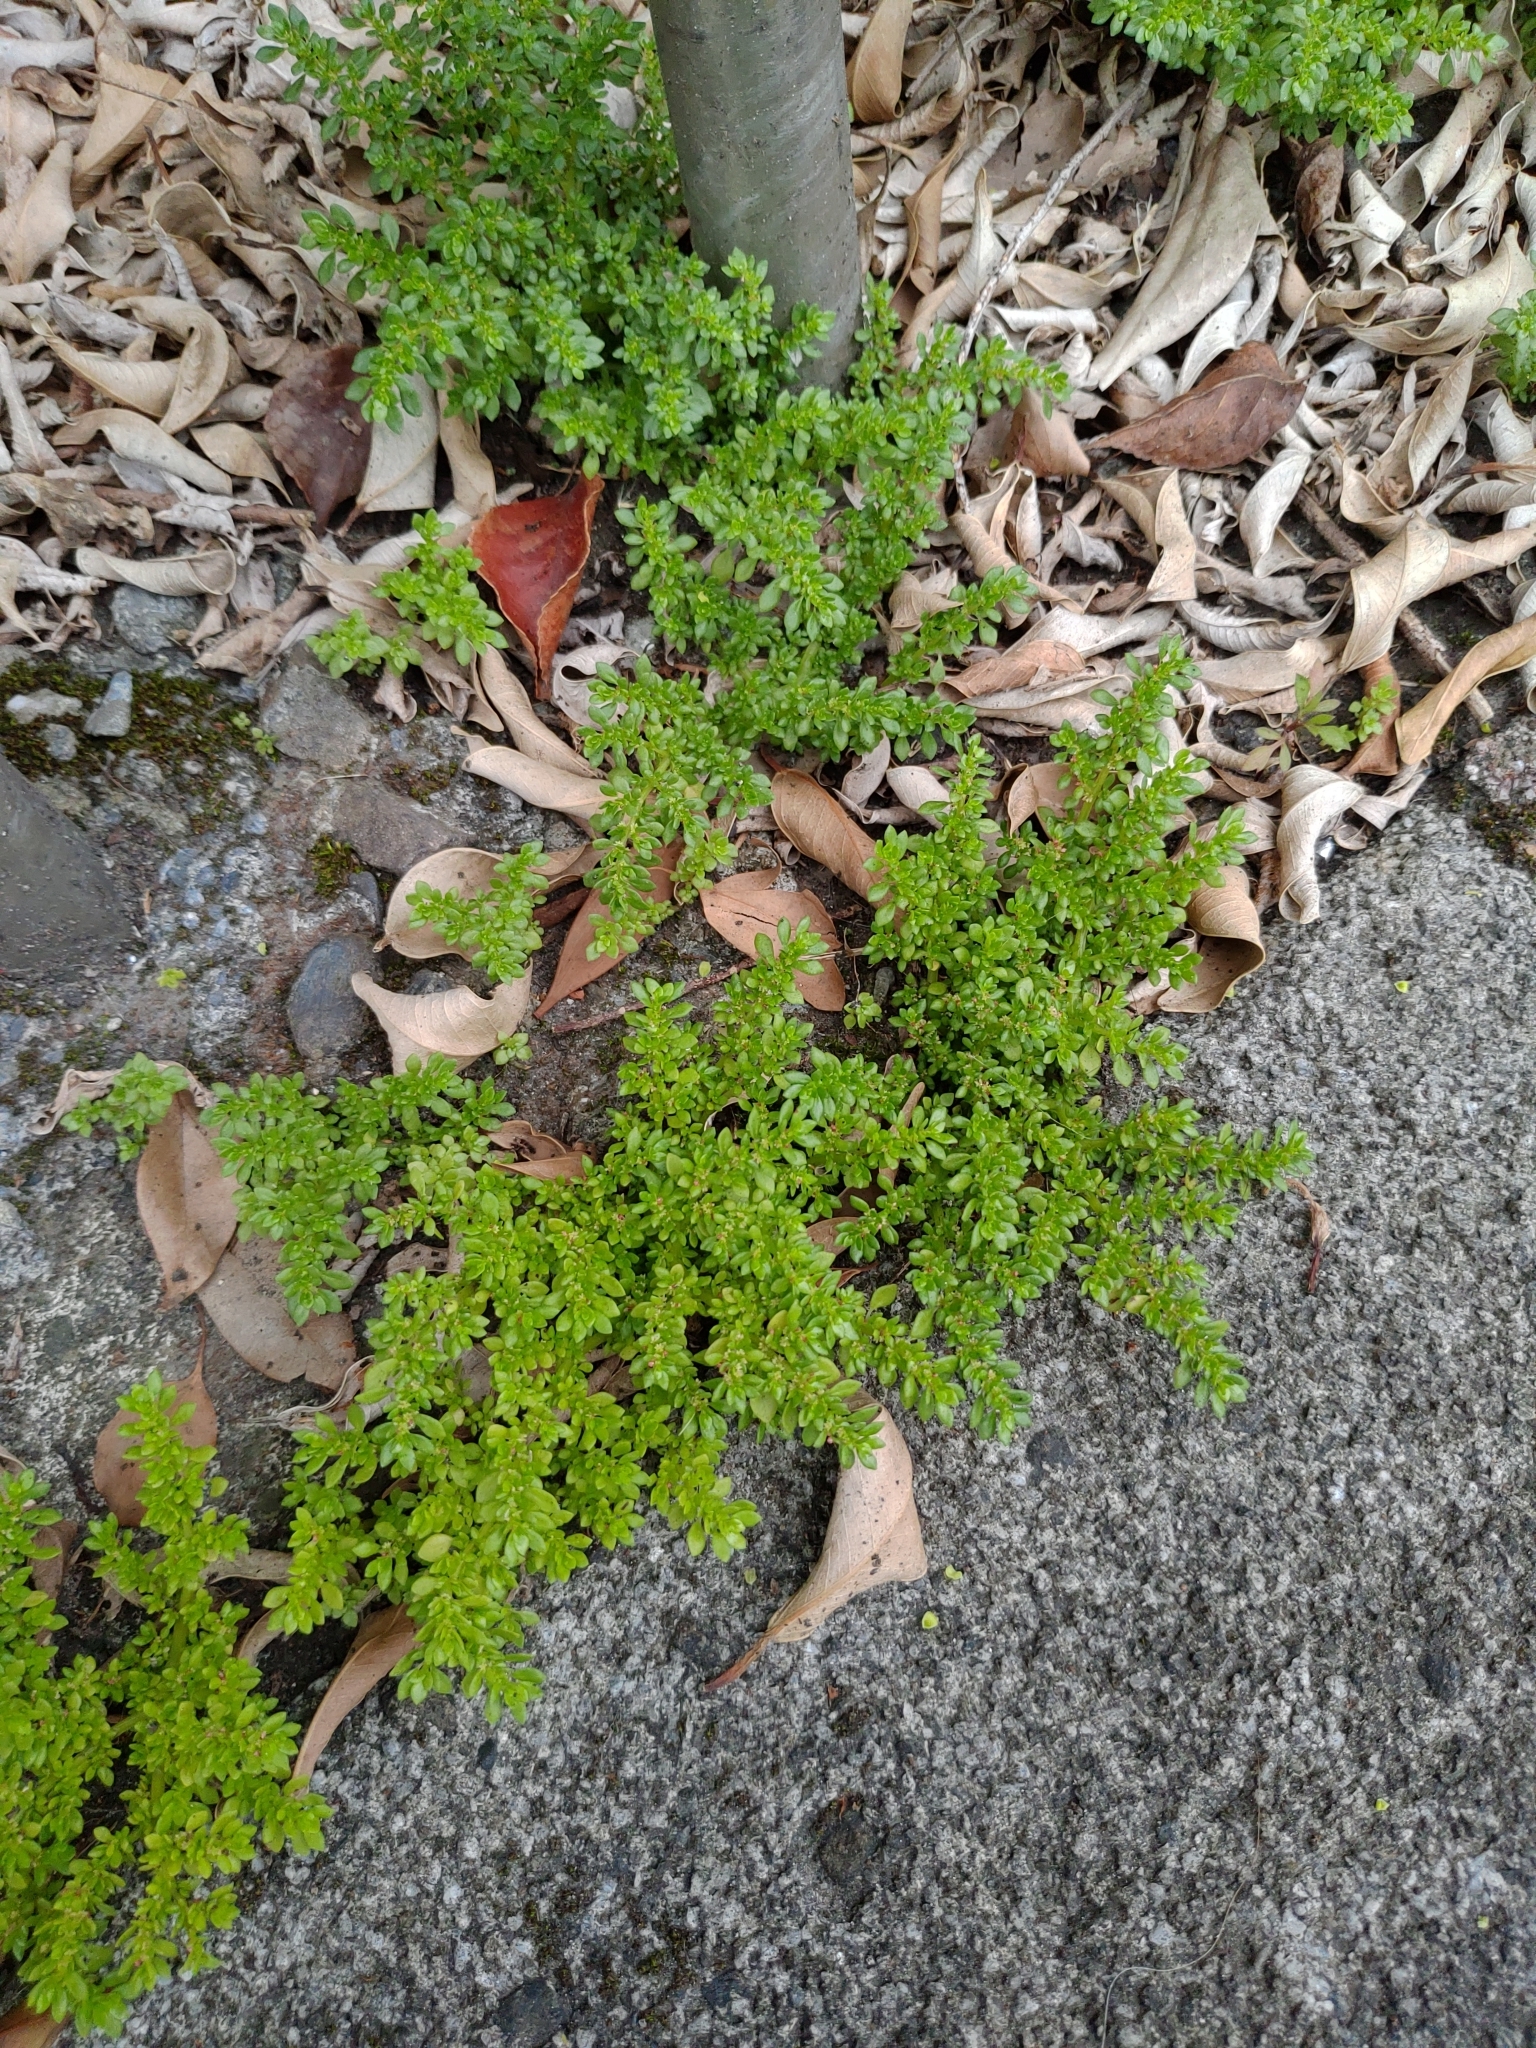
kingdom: Plantae
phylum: Tracheophyta
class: Magnoliopsida
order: Rosales
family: Urticaceae
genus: Pilea
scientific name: Pilea microphylla
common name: Artillery-plant
